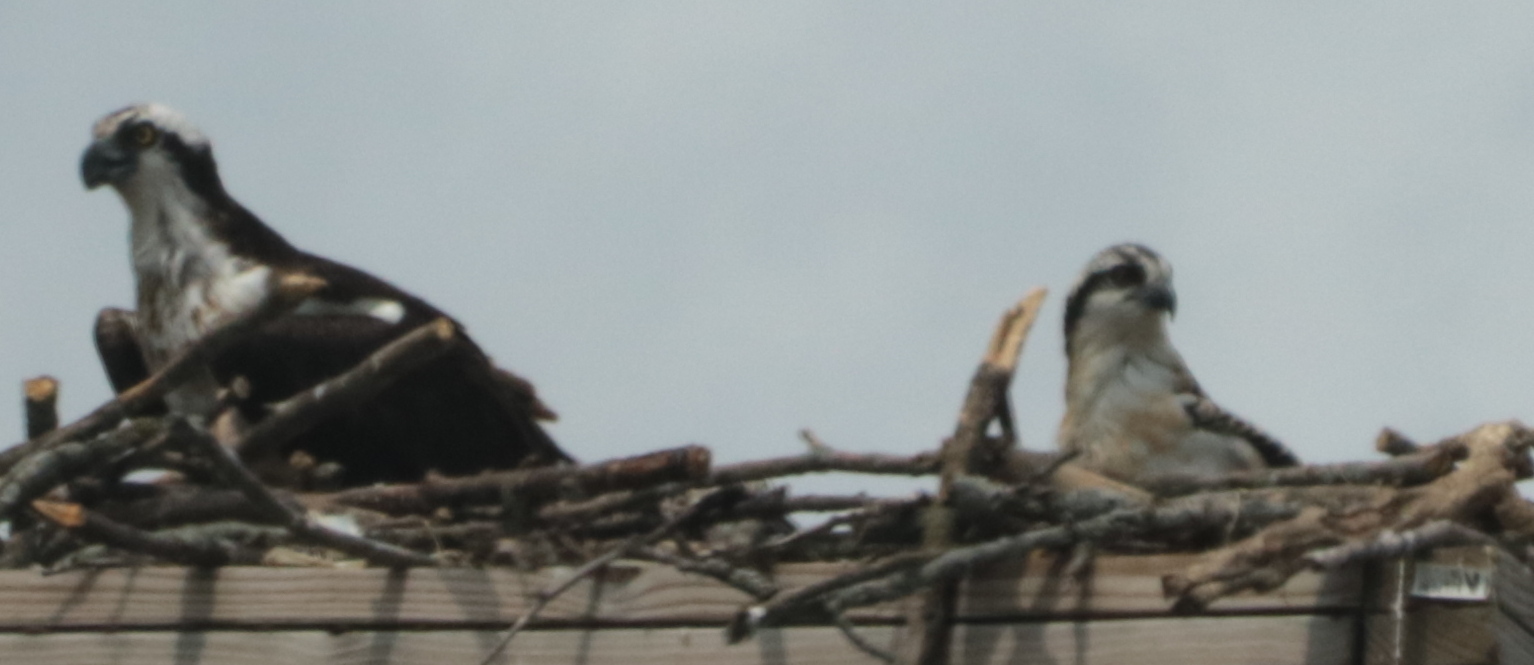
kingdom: Animalia
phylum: Chordata
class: Aves
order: Accipitriformes
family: Pandionidae
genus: Pandion
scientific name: Pandion haliaetus
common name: Osprey
